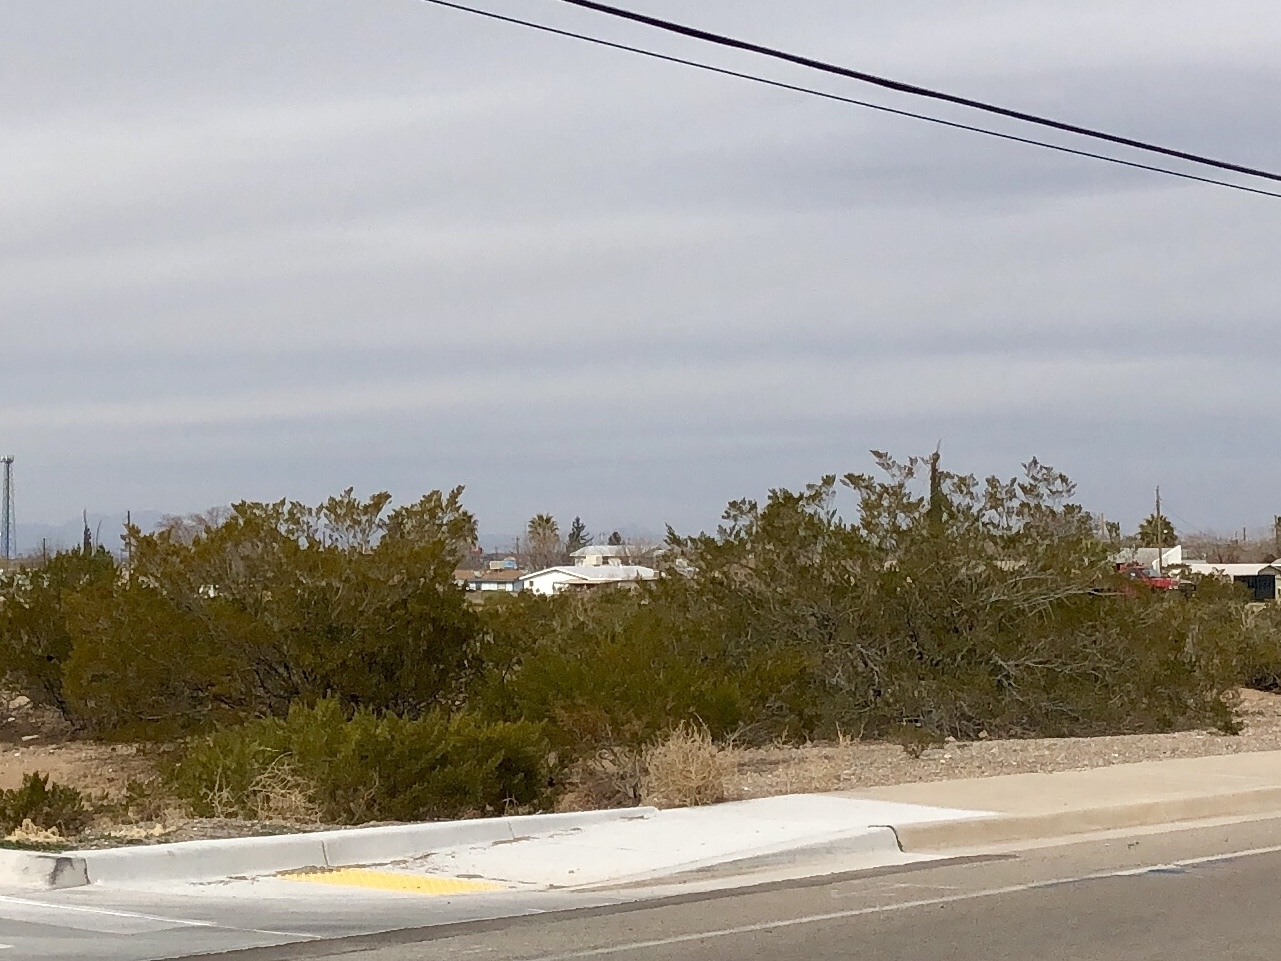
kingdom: Plantae
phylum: Tracheophyta
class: Magnoliopsida
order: Zygophyllales
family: Zygophyllaceae
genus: Larrea
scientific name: Larrea tridentata
